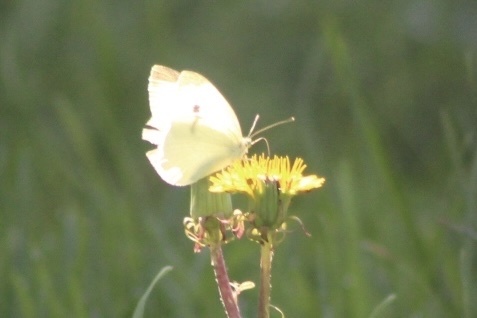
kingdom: Animalia
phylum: Arthropoda
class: Insecta
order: Lepidoptera
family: Pieridae
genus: Pieris
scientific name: Pieris rapae
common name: Small white
